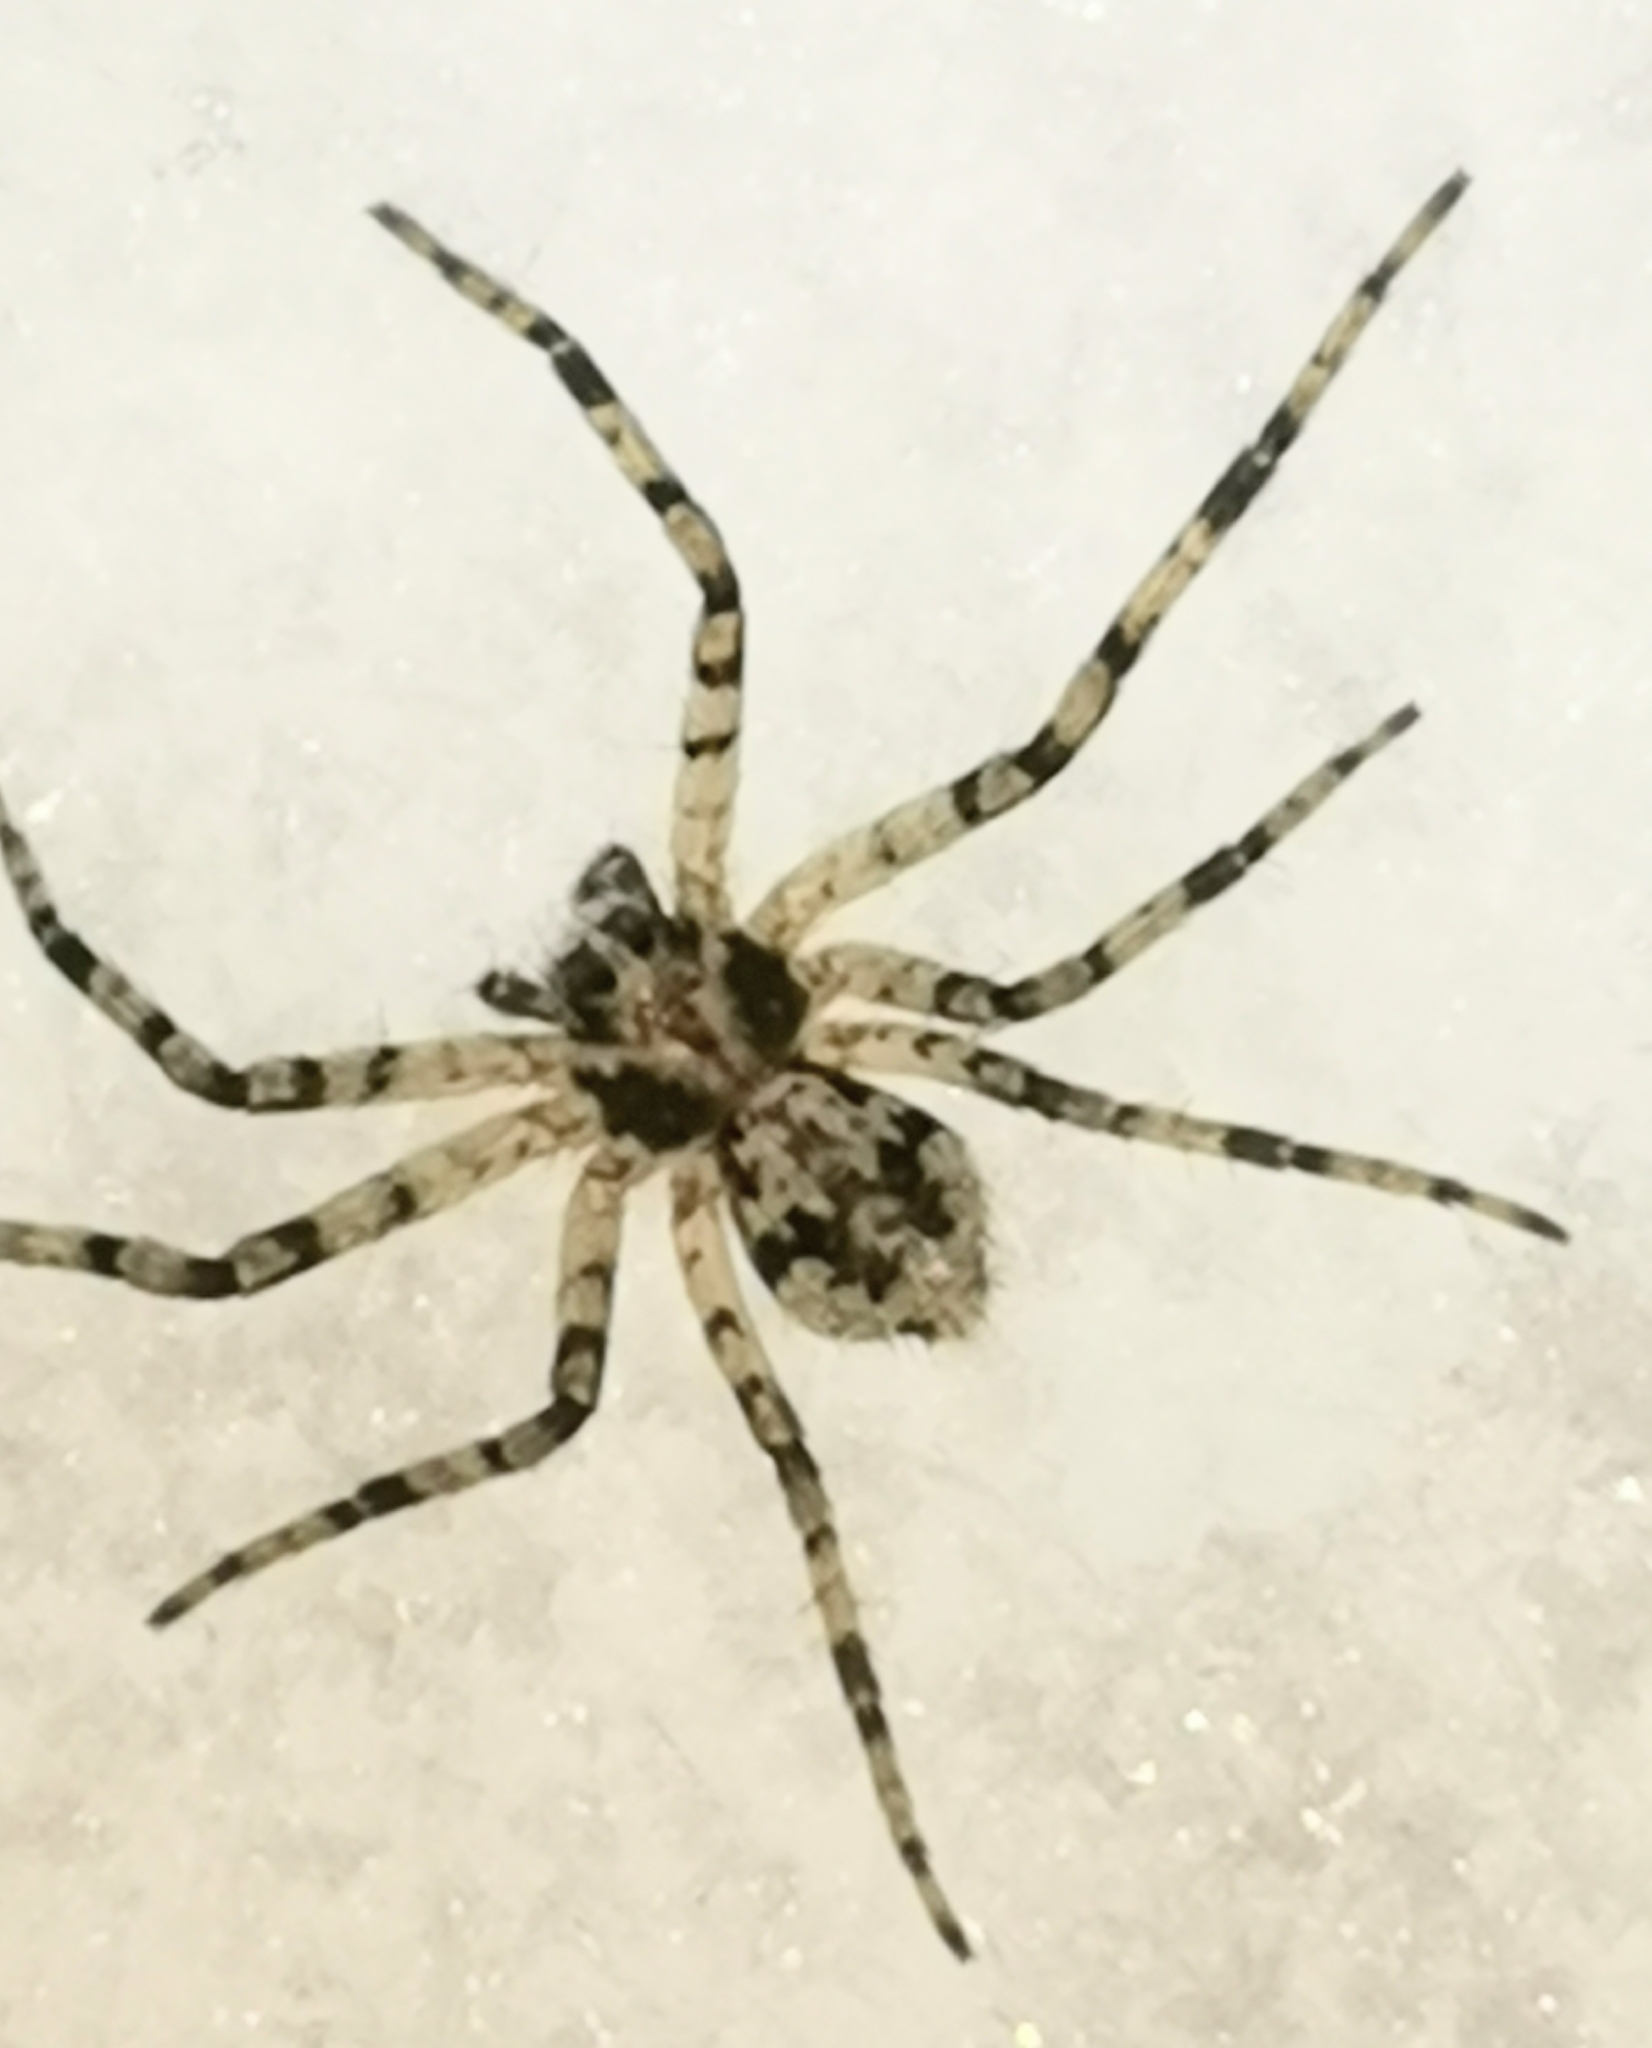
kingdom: Animalia
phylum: Arthropoda
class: Arachnida
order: Araneae
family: Philodromidae
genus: Philodromus
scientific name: Philodromus margaritatus
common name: Lichen running-spider
